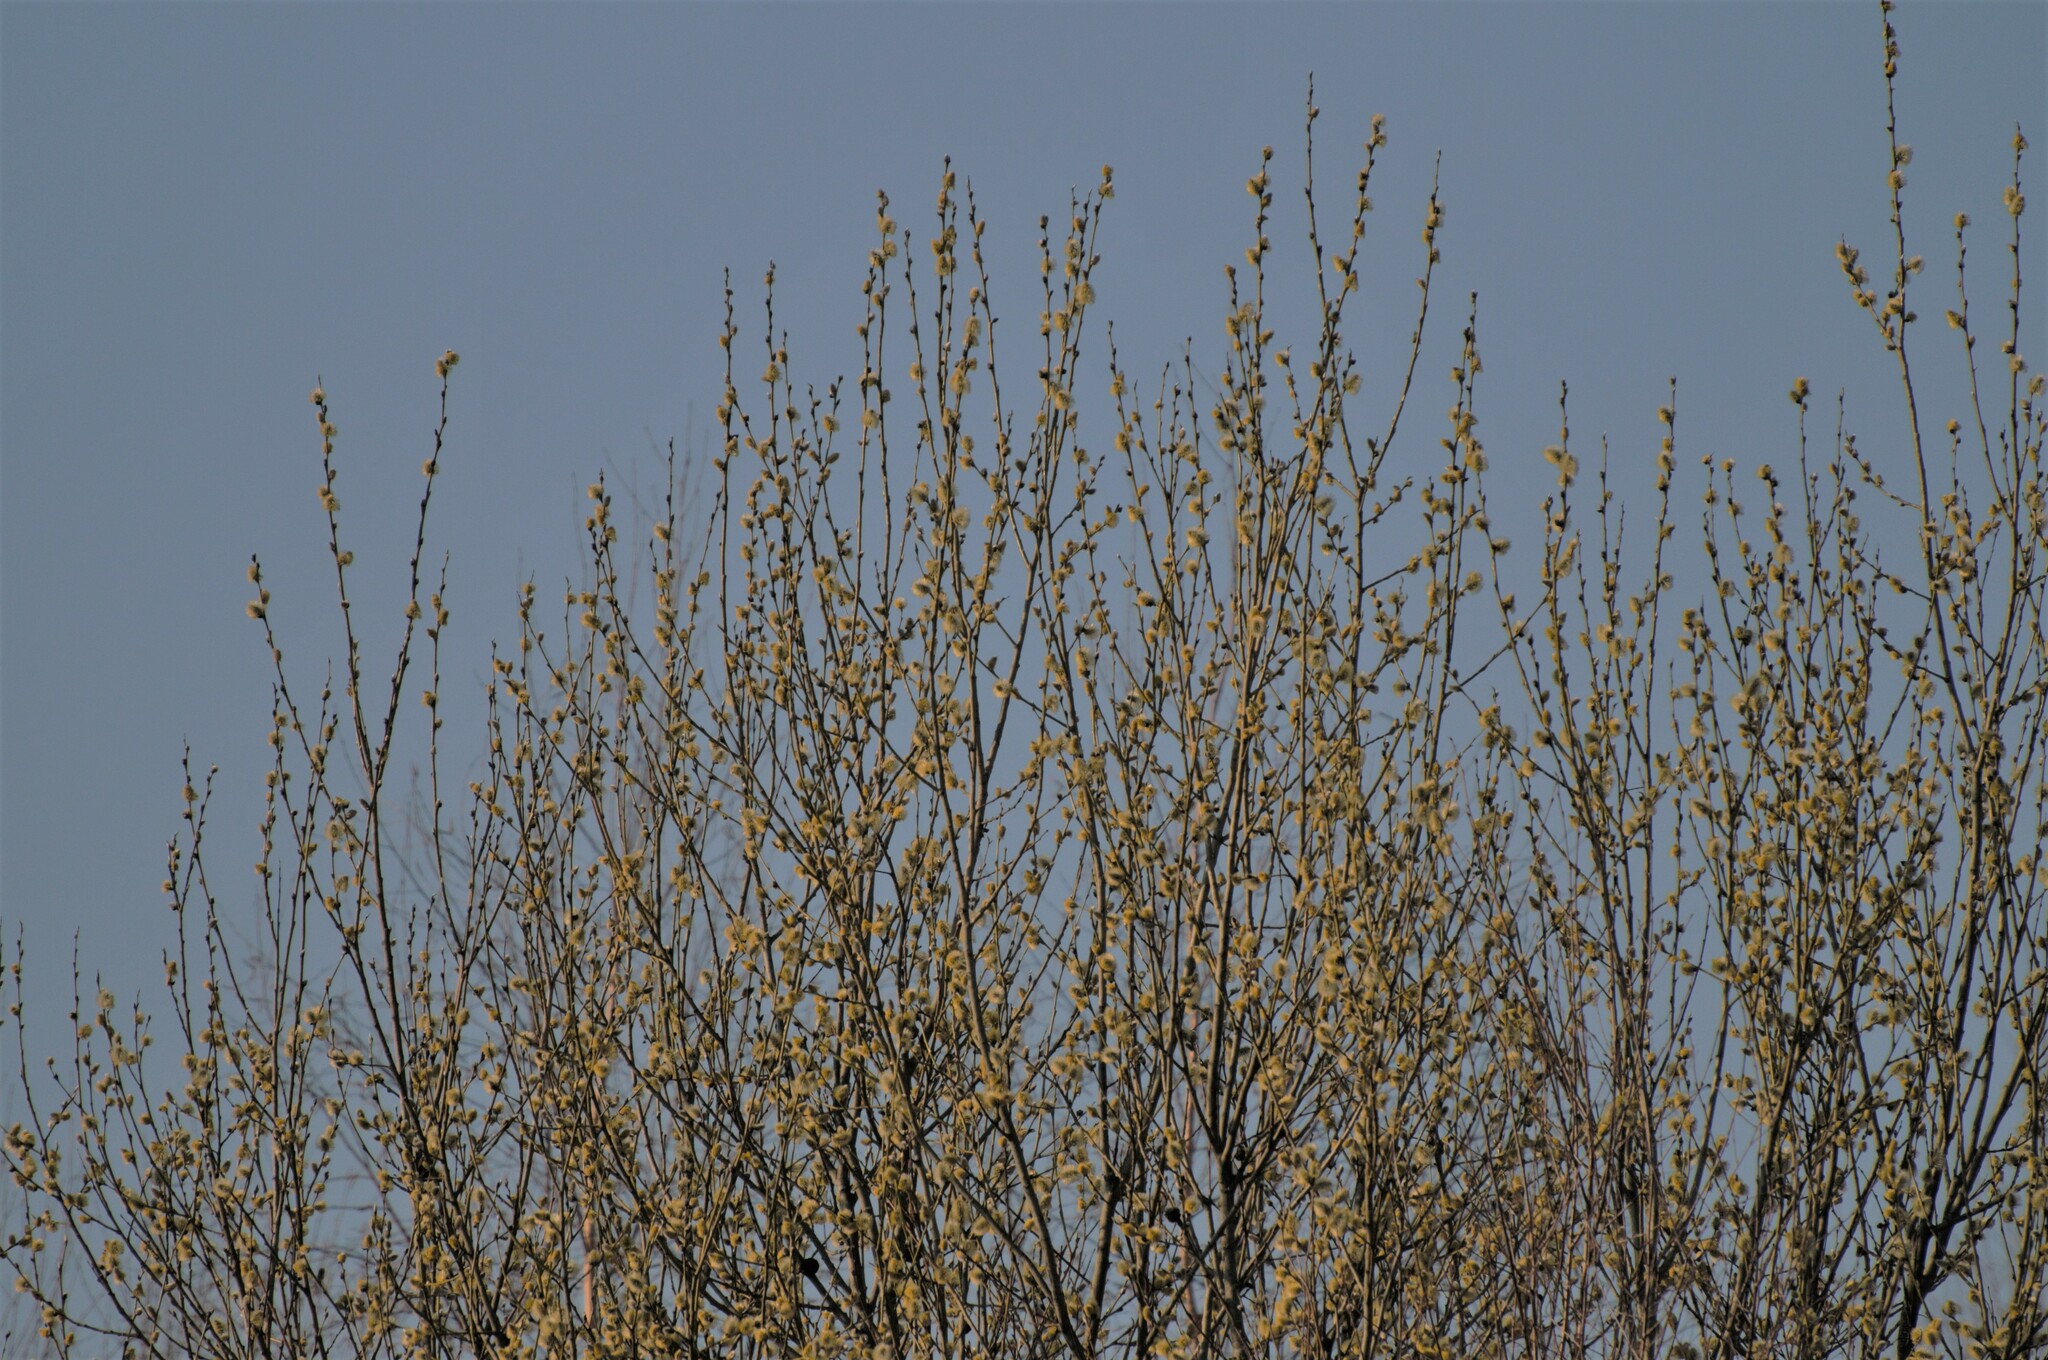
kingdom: Plantae
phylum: Tracheophyta
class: Magnoliopsida
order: Malpighiales
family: Salicaceae
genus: Salix
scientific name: Salix caprea
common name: Goat willow
